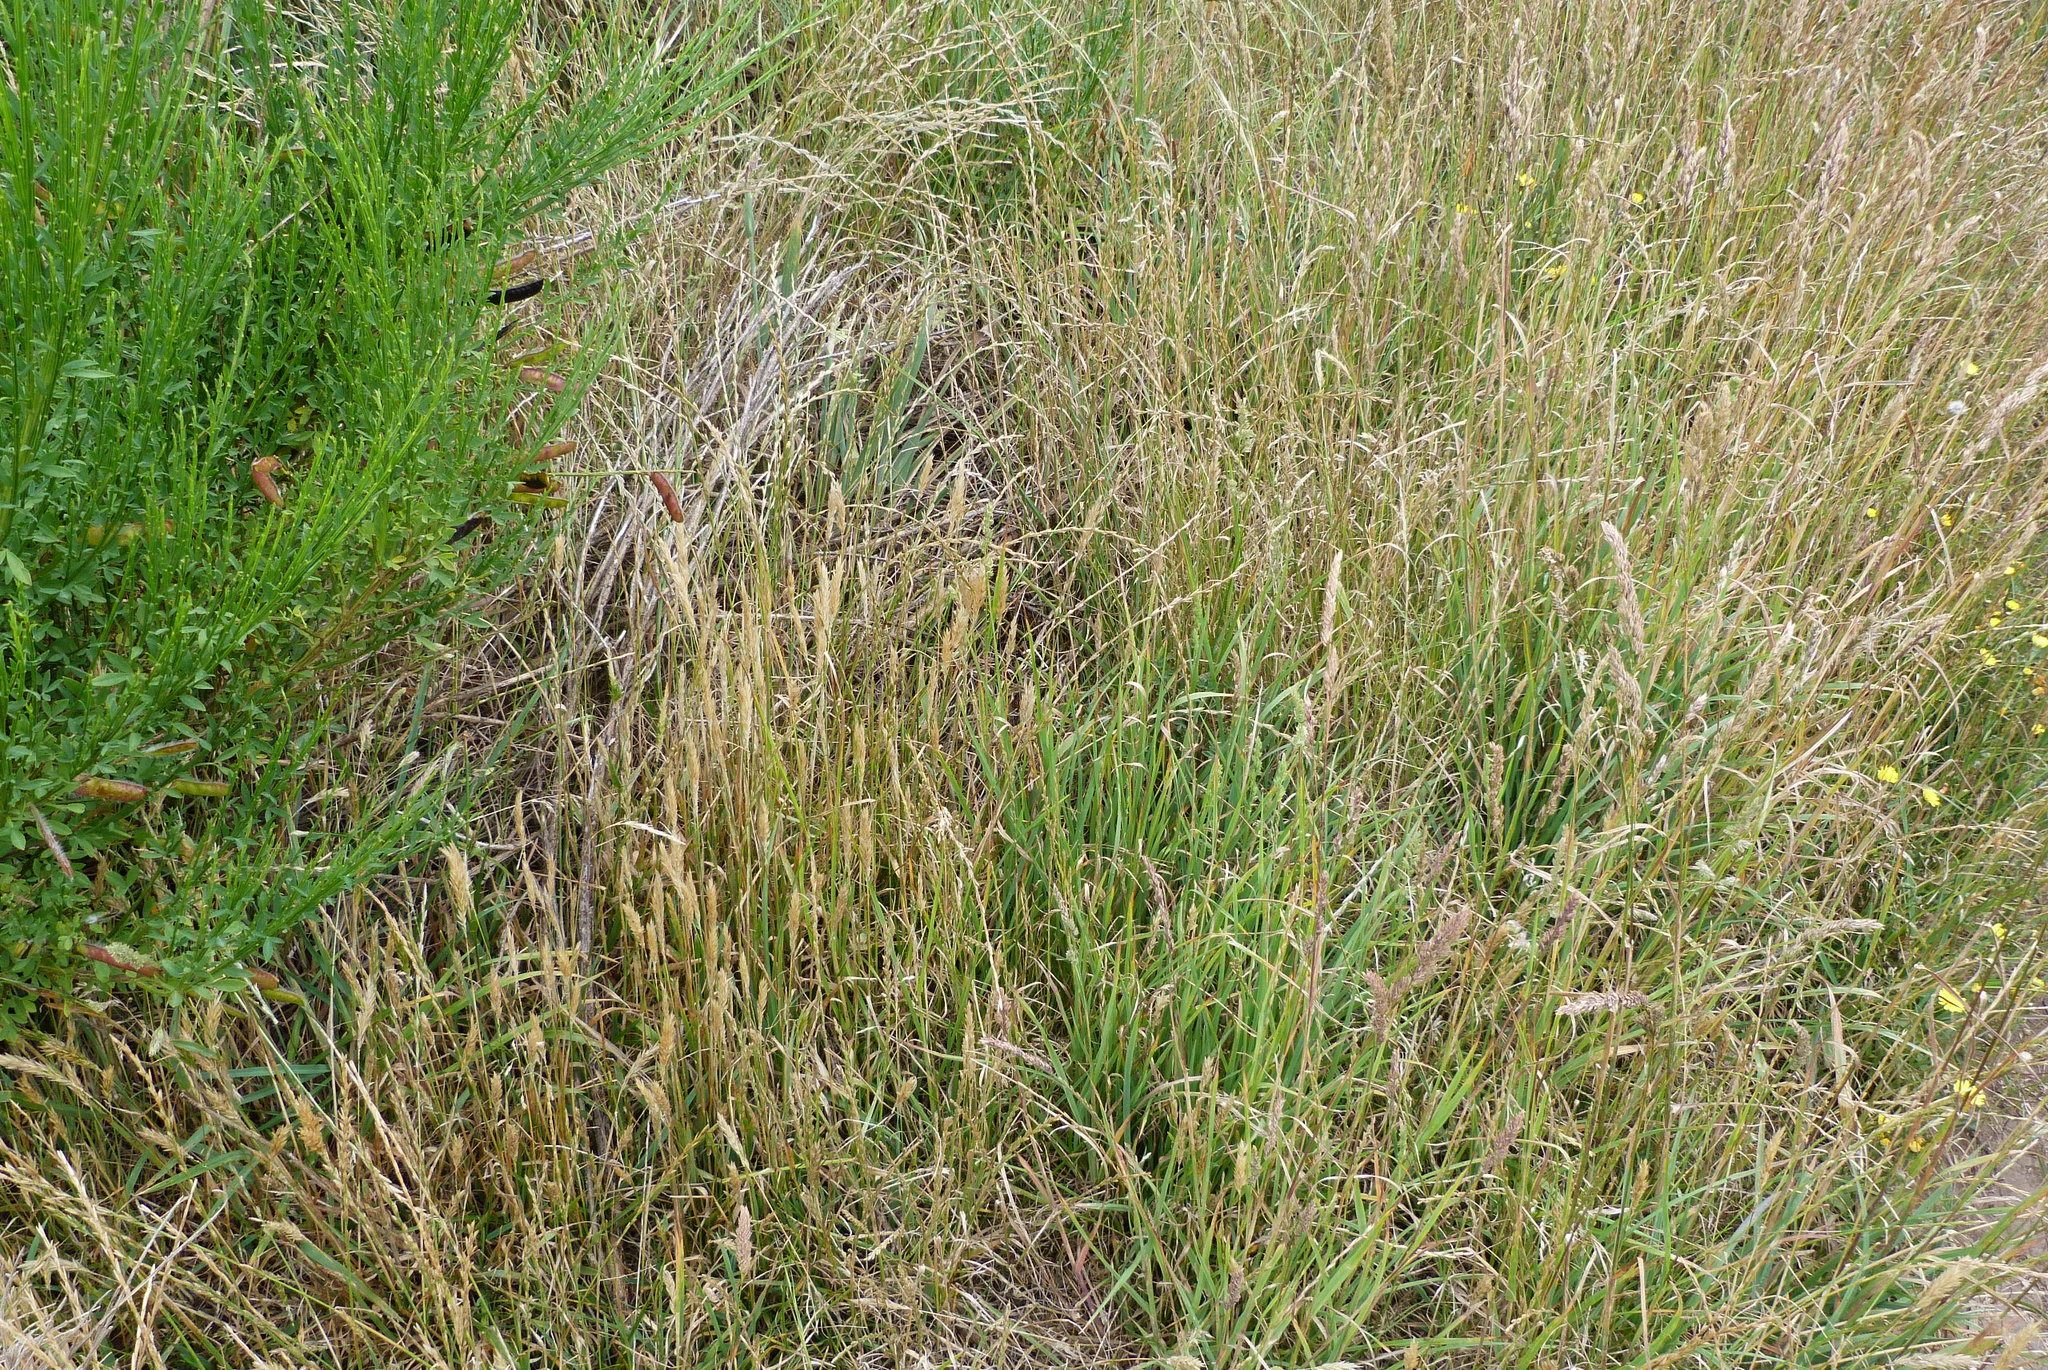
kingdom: Plantae
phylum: Tracheophyta
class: Liliopsida
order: Poales
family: Poaceae
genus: Lolium
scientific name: Lolium perenne
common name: Perennial ryegrass
